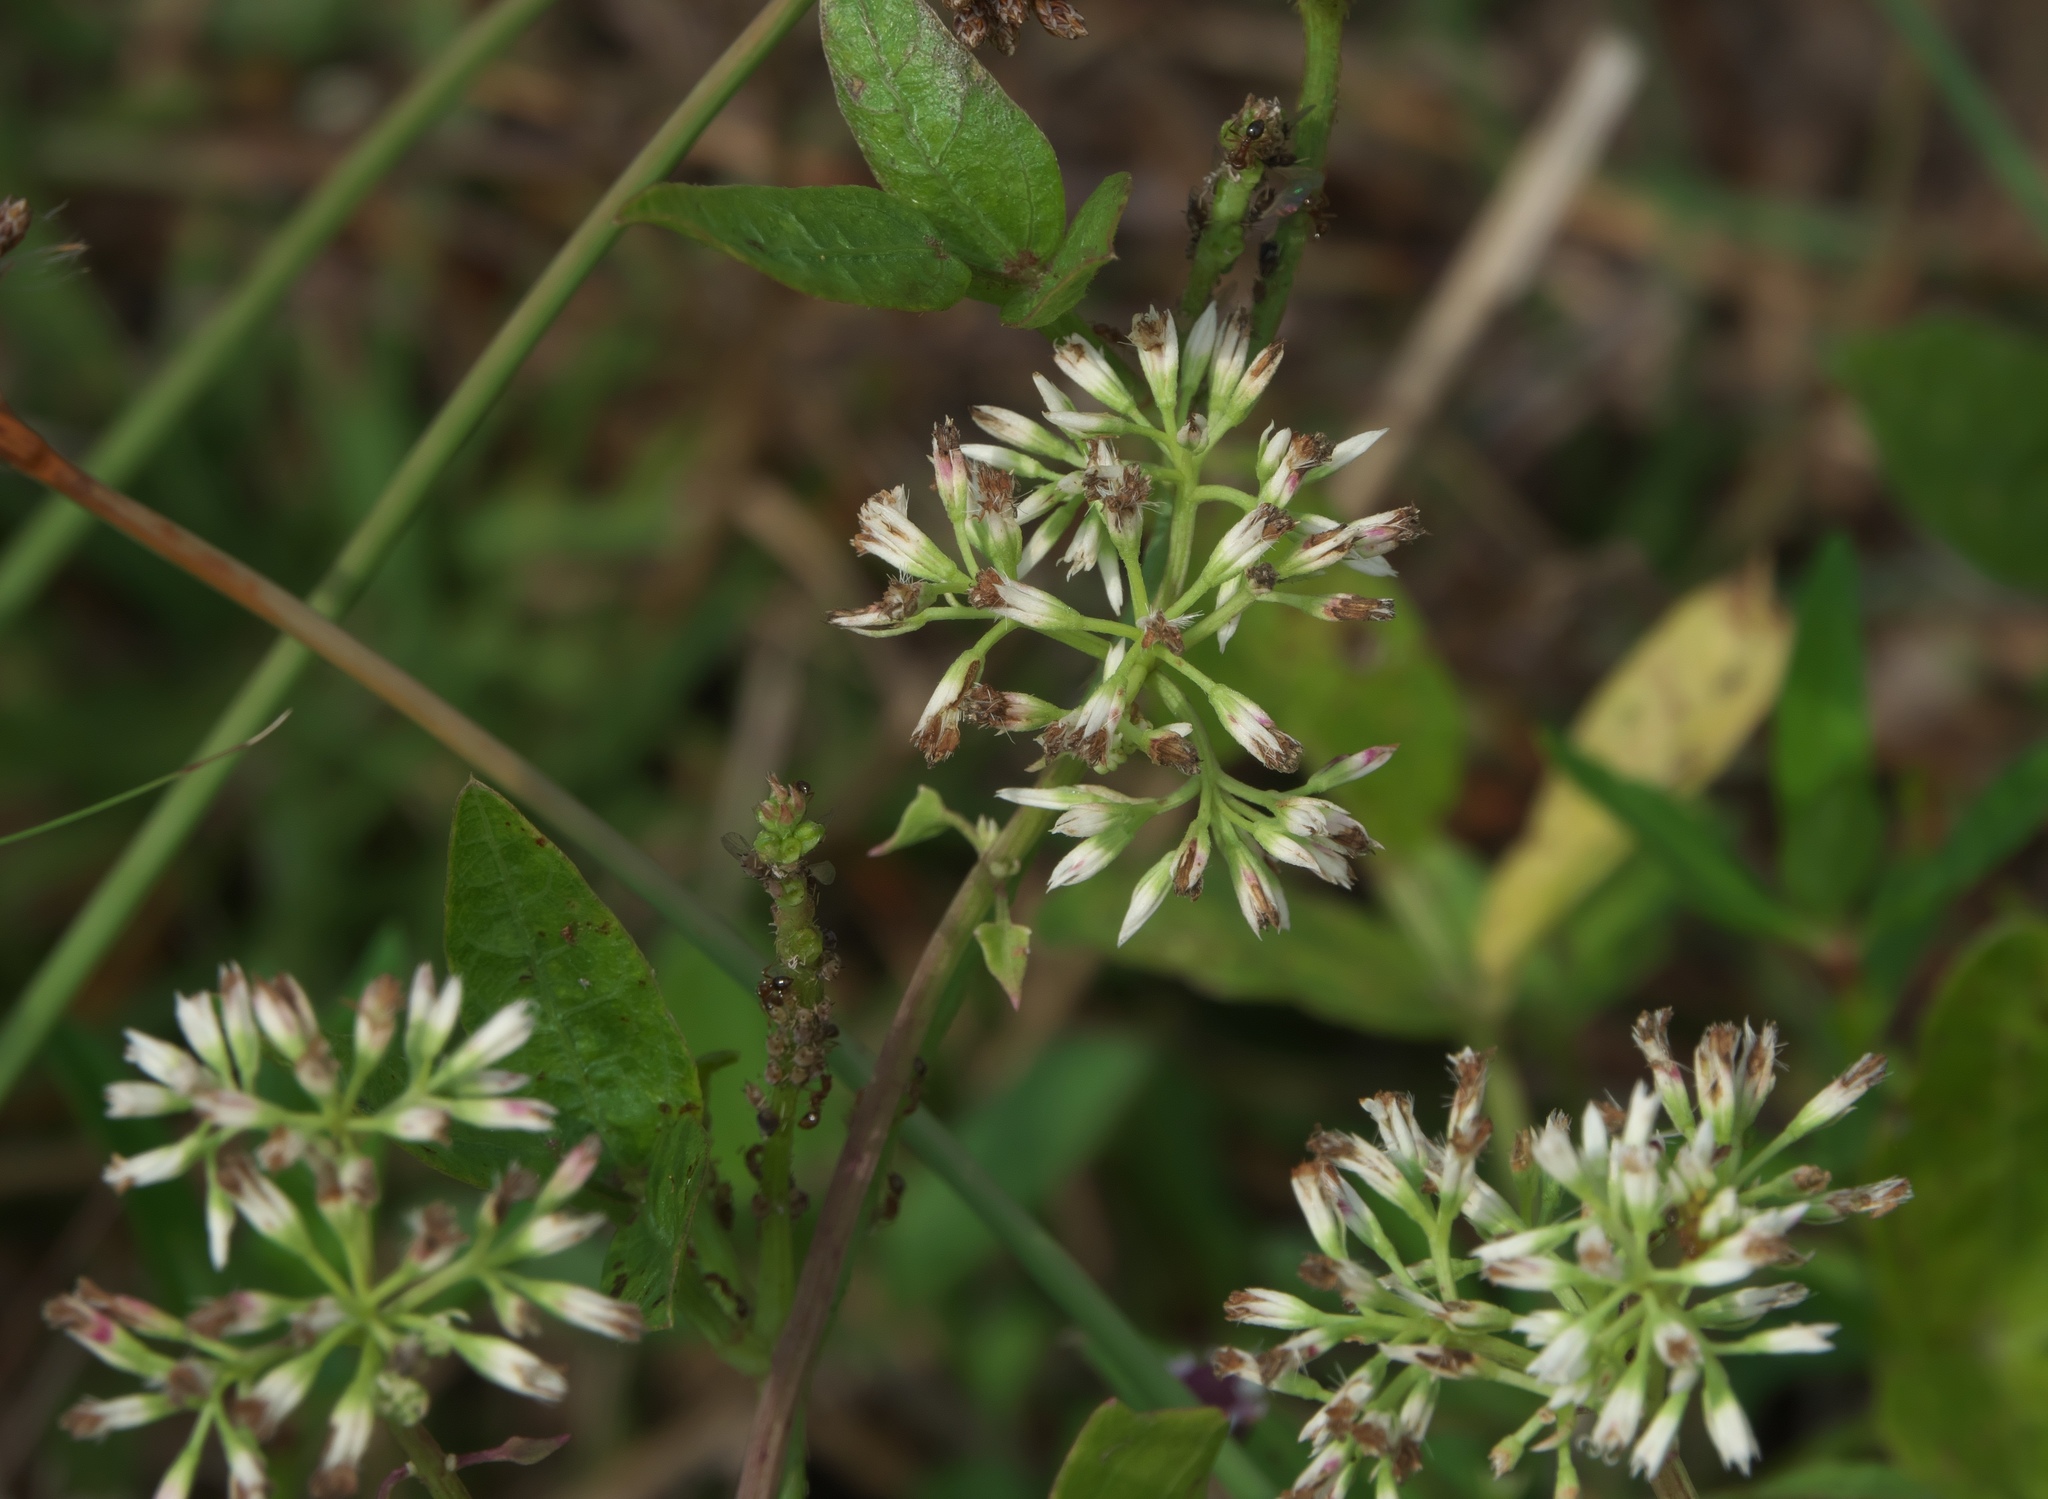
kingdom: Plantae
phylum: Tracheophyta
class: Magnoliopsida
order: Asterales
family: Asteraceae
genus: Mikania
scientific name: Mikania scandens
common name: Climbing hempvine
